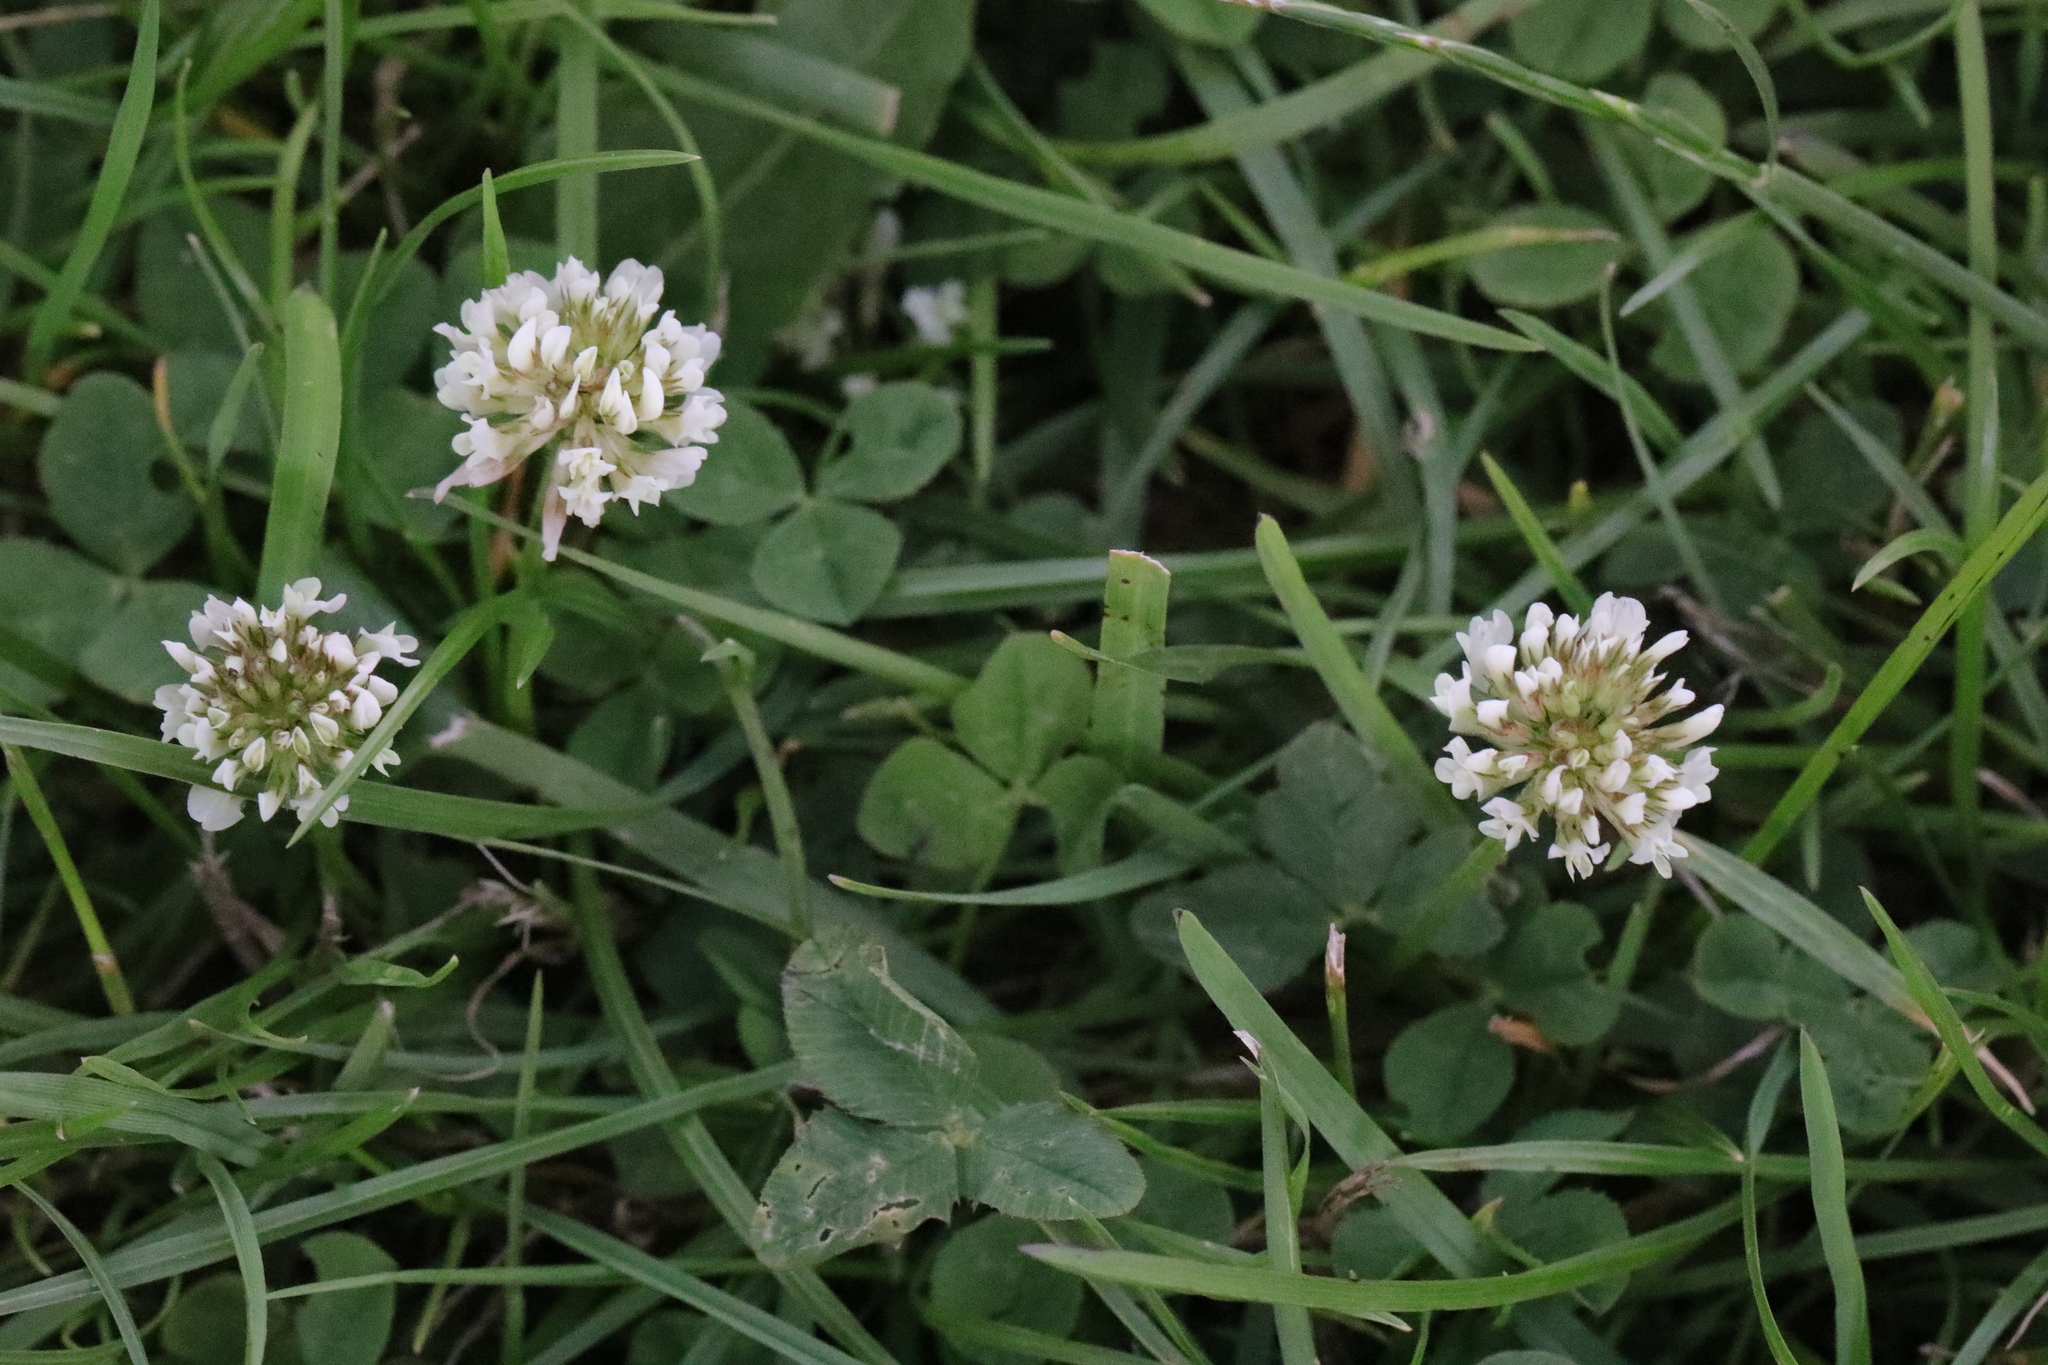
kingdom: Plantae
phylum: Tracheophyta
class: Magnoliopsida
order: Fabales
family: Fabaceae
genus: Trifolium
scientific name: Trifolium repens
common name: White clover
